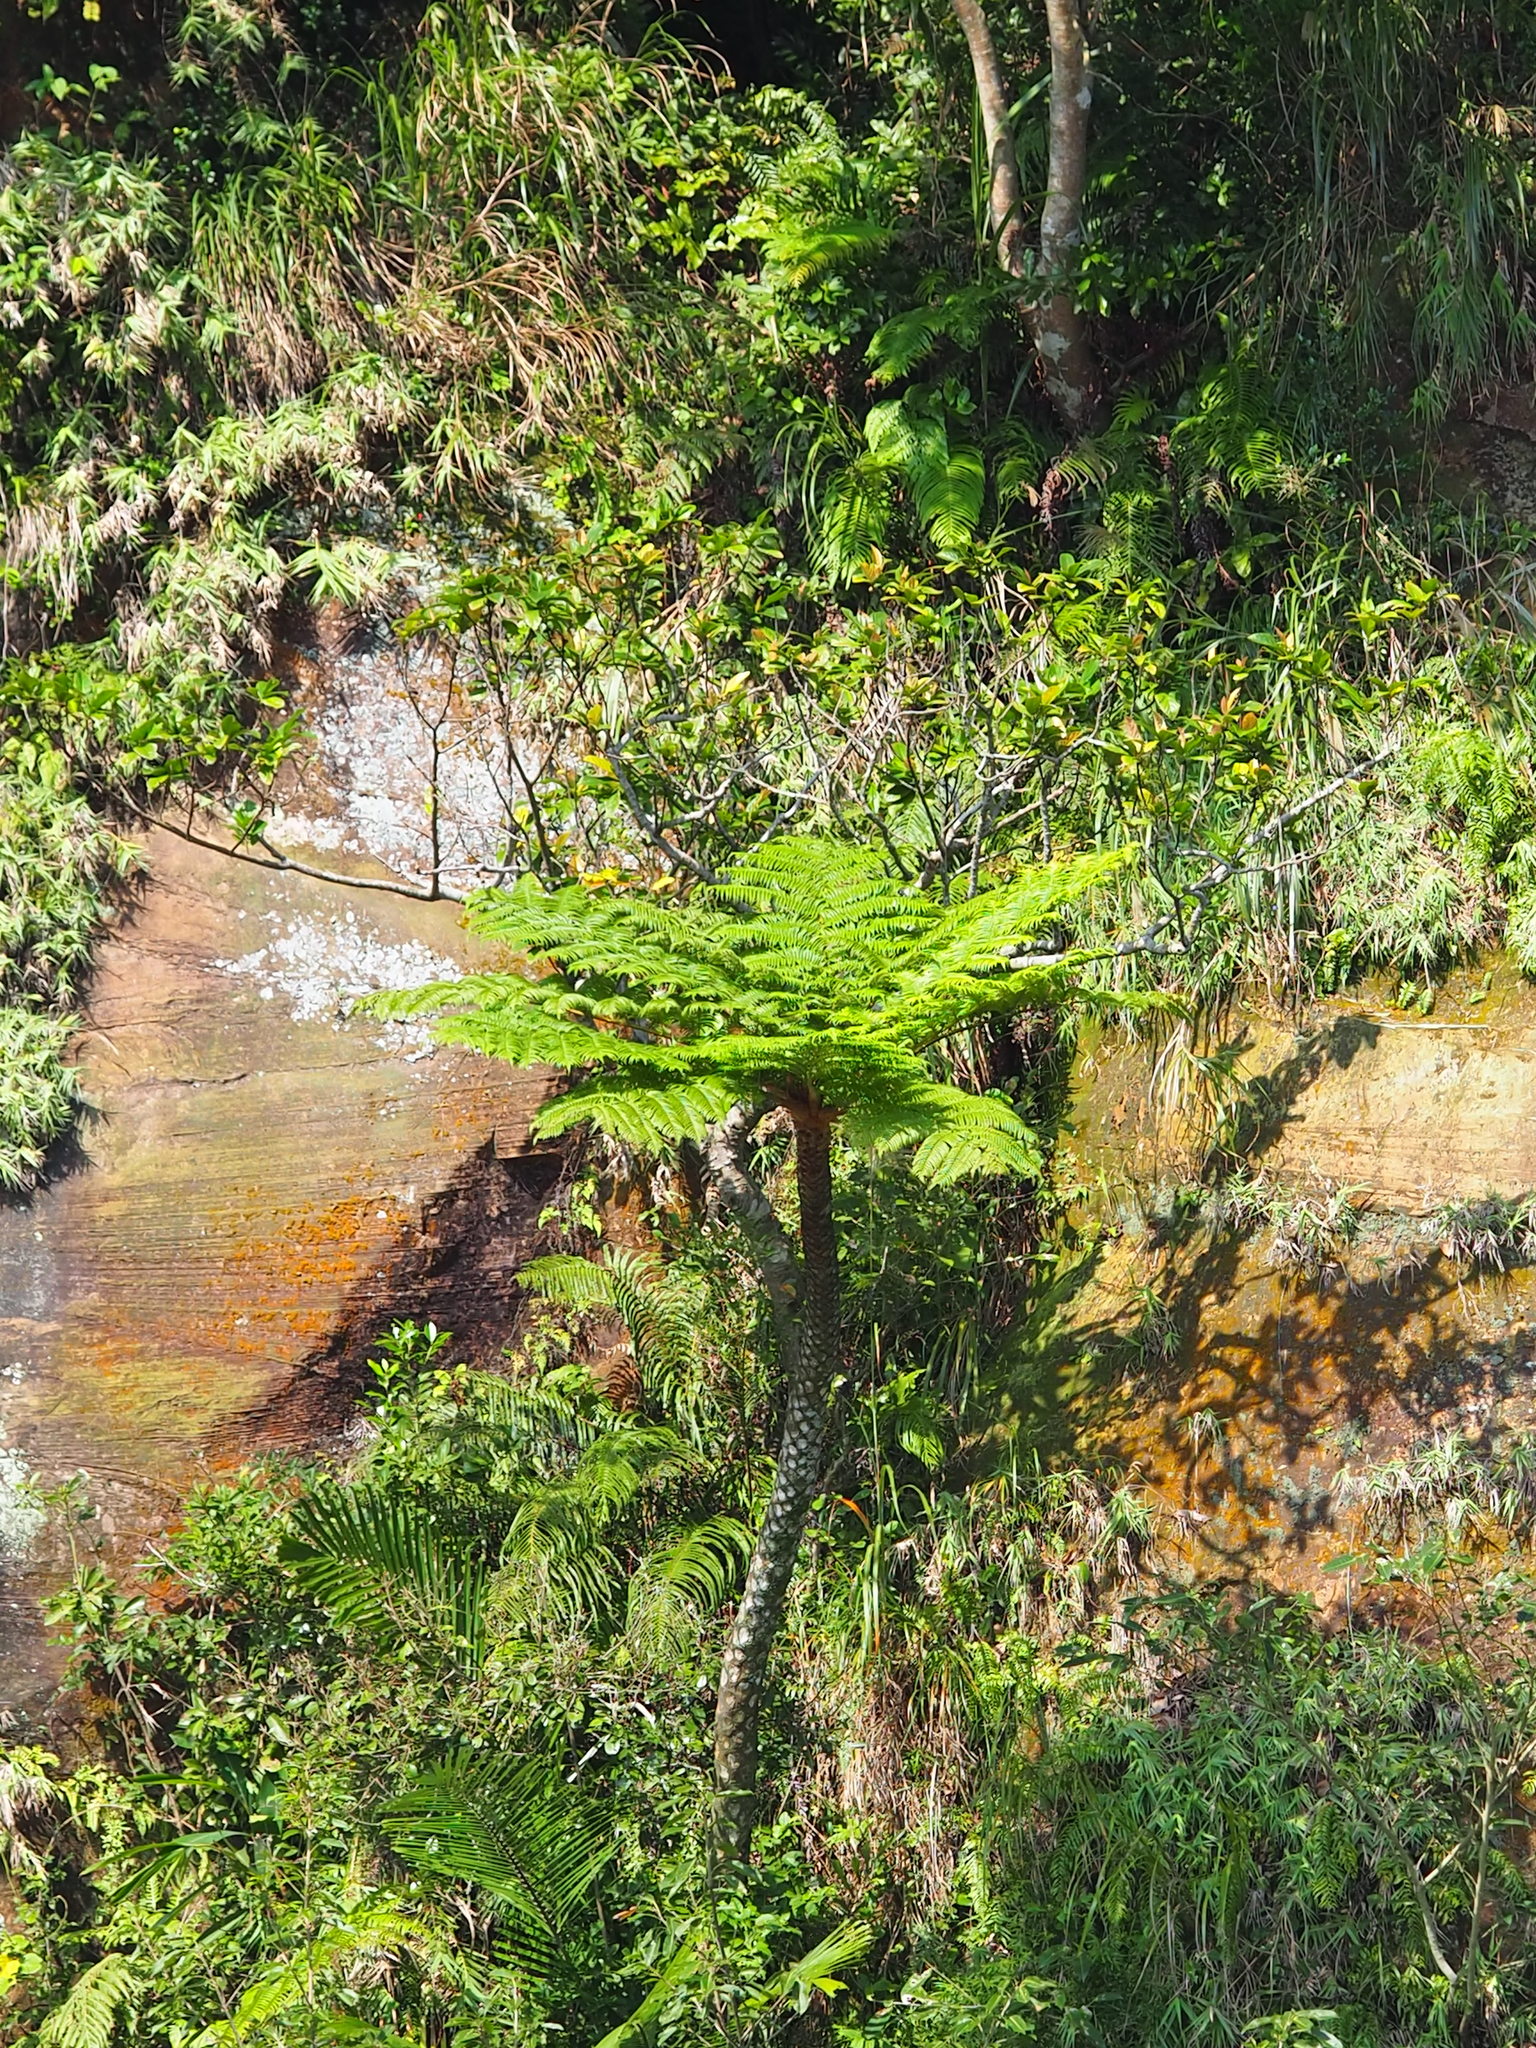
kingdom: Plantae
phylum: Tracheophyta
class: Polypodiopsida
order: Cyatheales
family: Cyatheaceae
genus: Alsophila
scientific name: Alsophila lepifera
